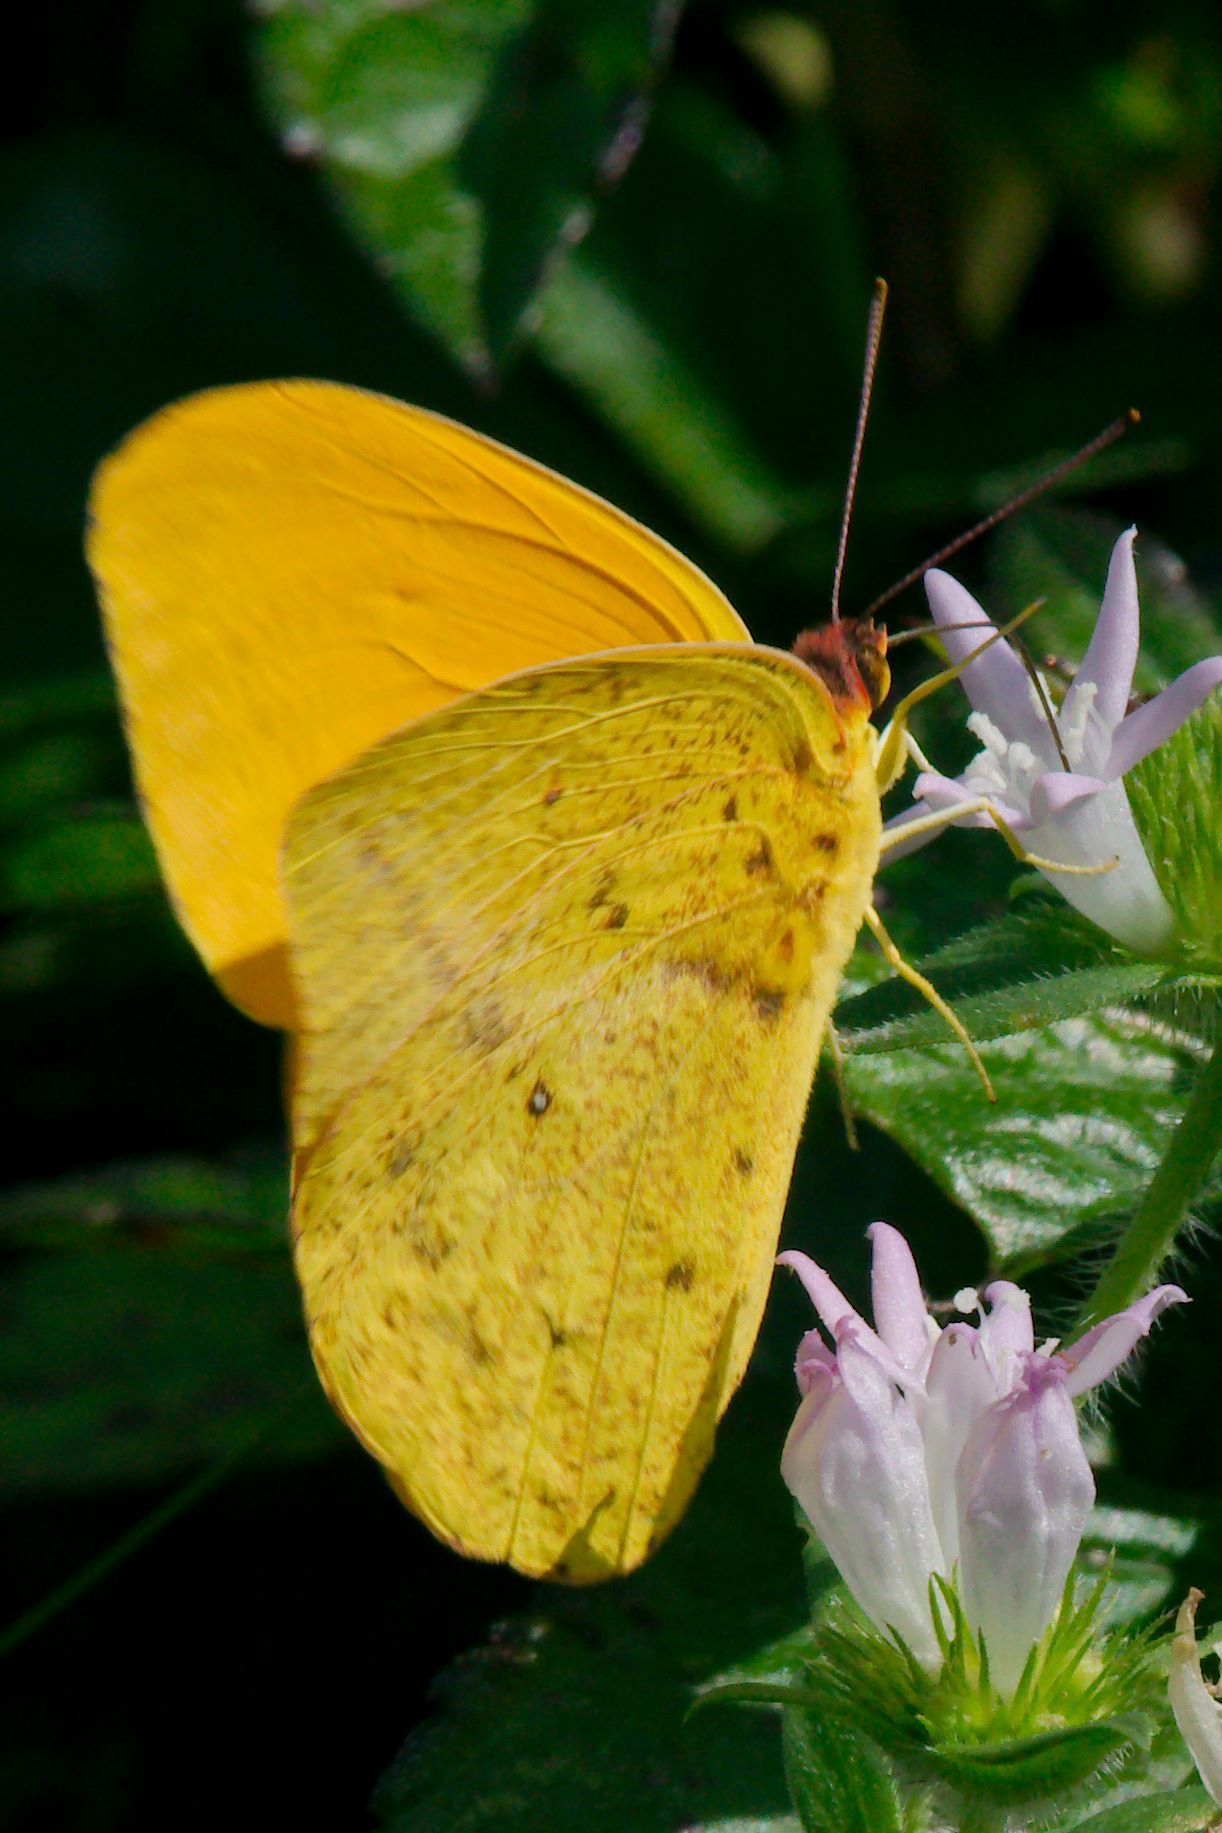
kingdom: Animalia
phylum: Arthropoda
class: Insecta
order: Lepidoptera
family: Pieridae
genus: Phoebis
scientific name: Phoebis agarithe
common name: Large orange sulphur
